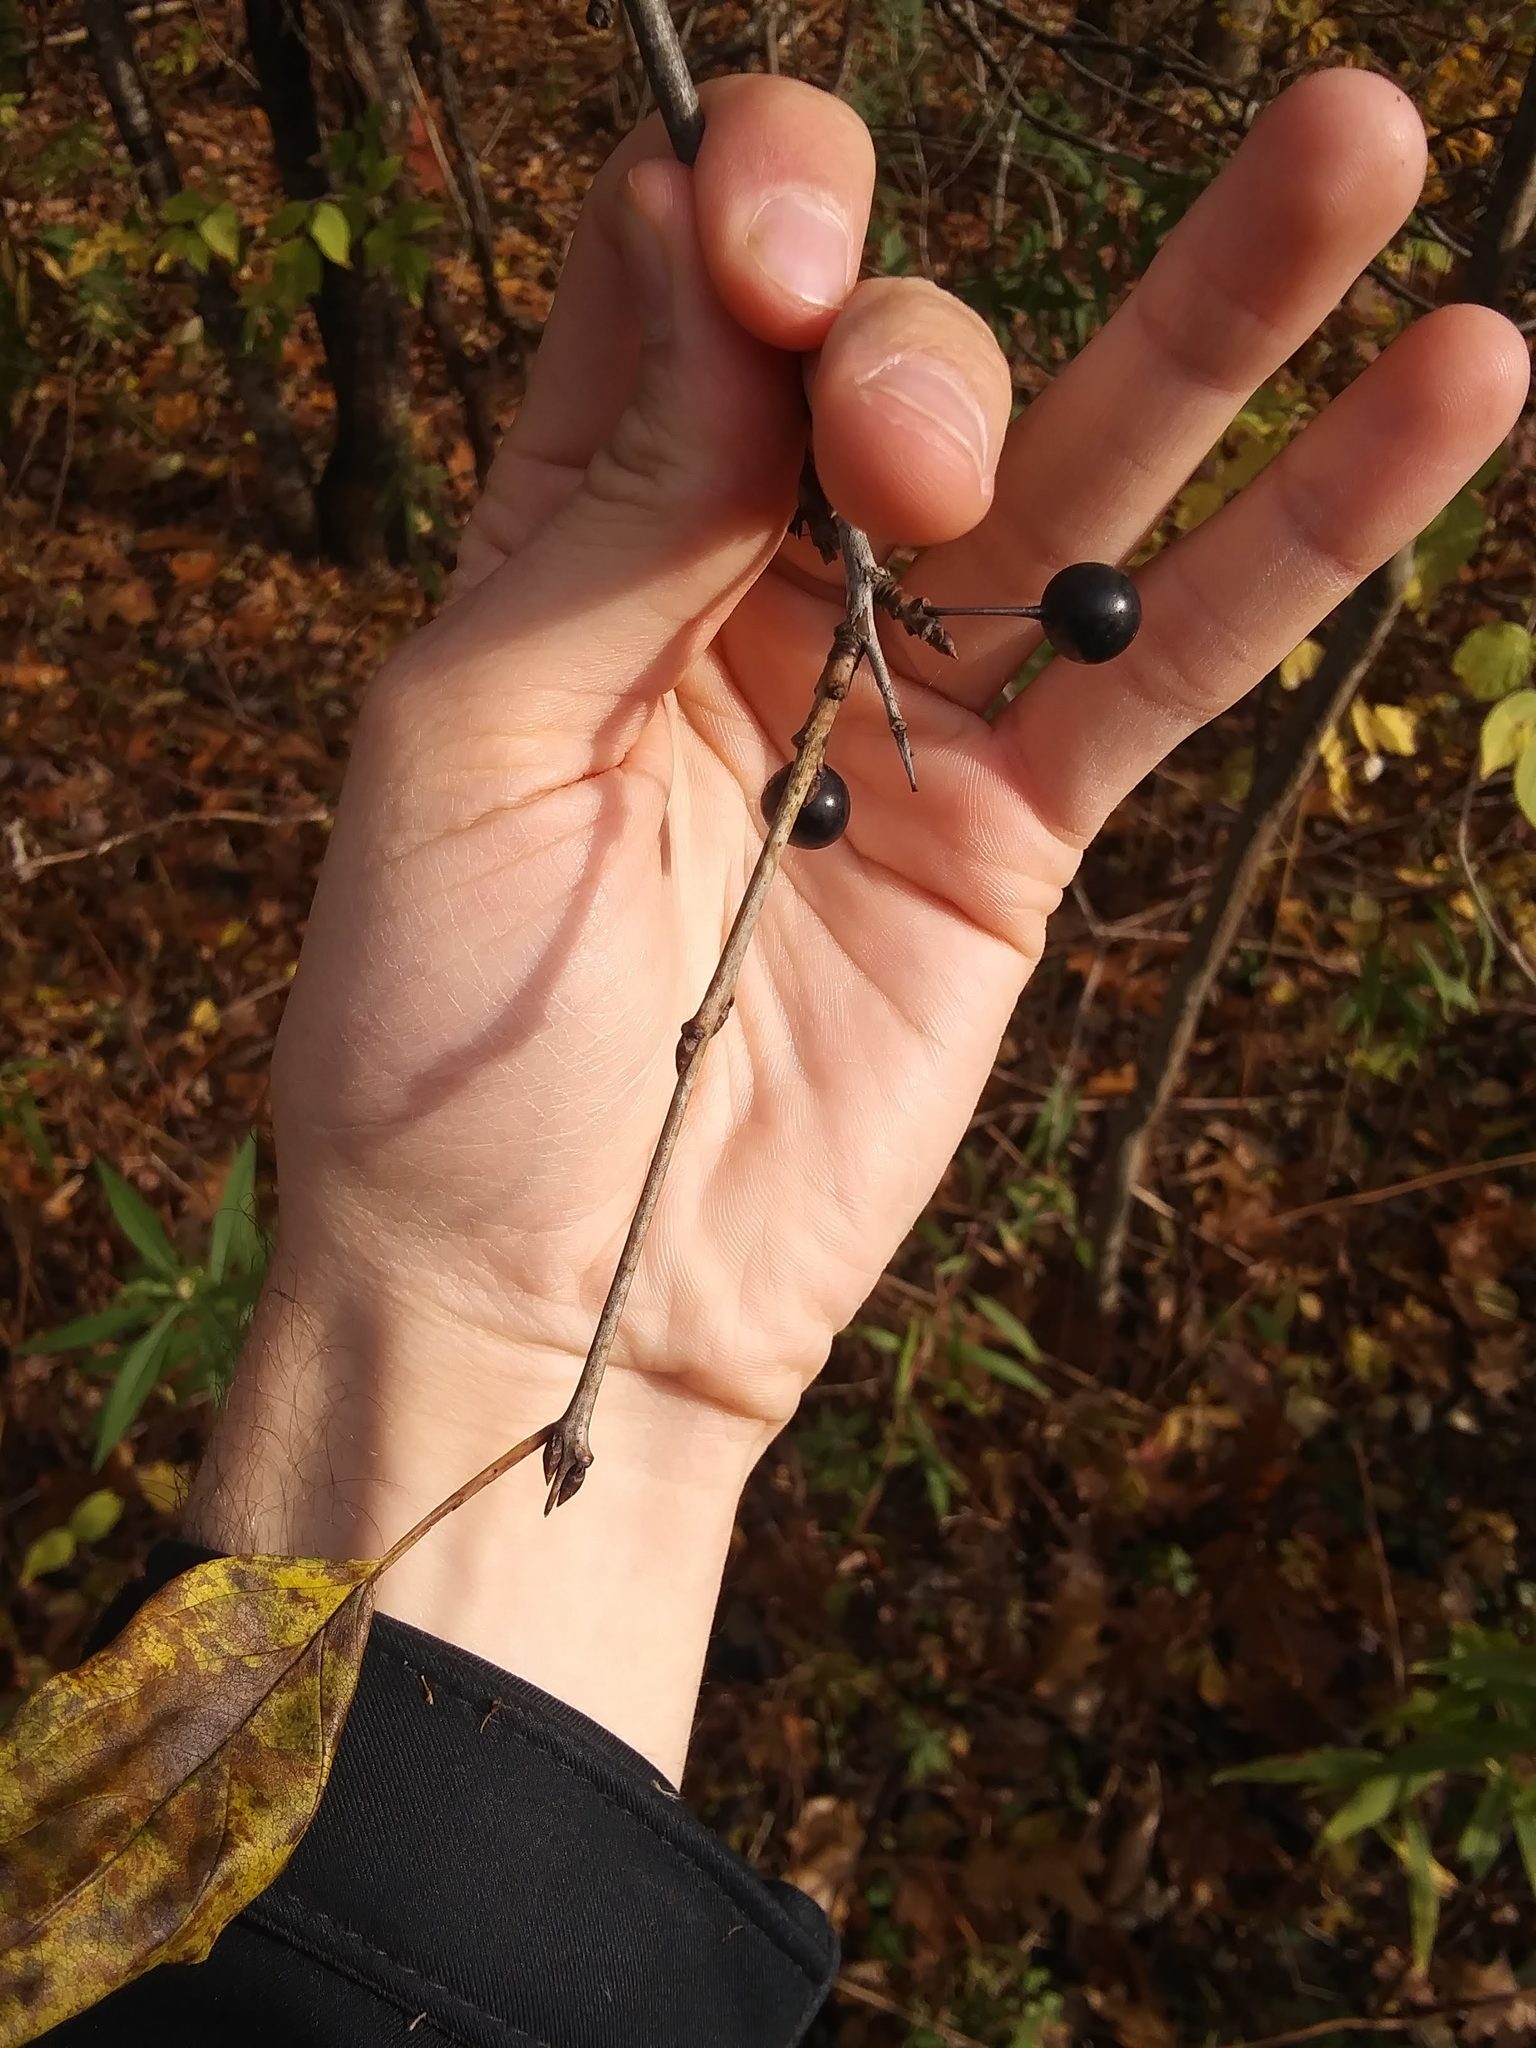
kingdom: Plantae
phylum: Tracheophyta
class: Magnoliopsida
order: Rosales
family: Rhamnaceae
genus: Rhamnus
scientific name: Rhamnus cathartica
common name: Common buckthorn
